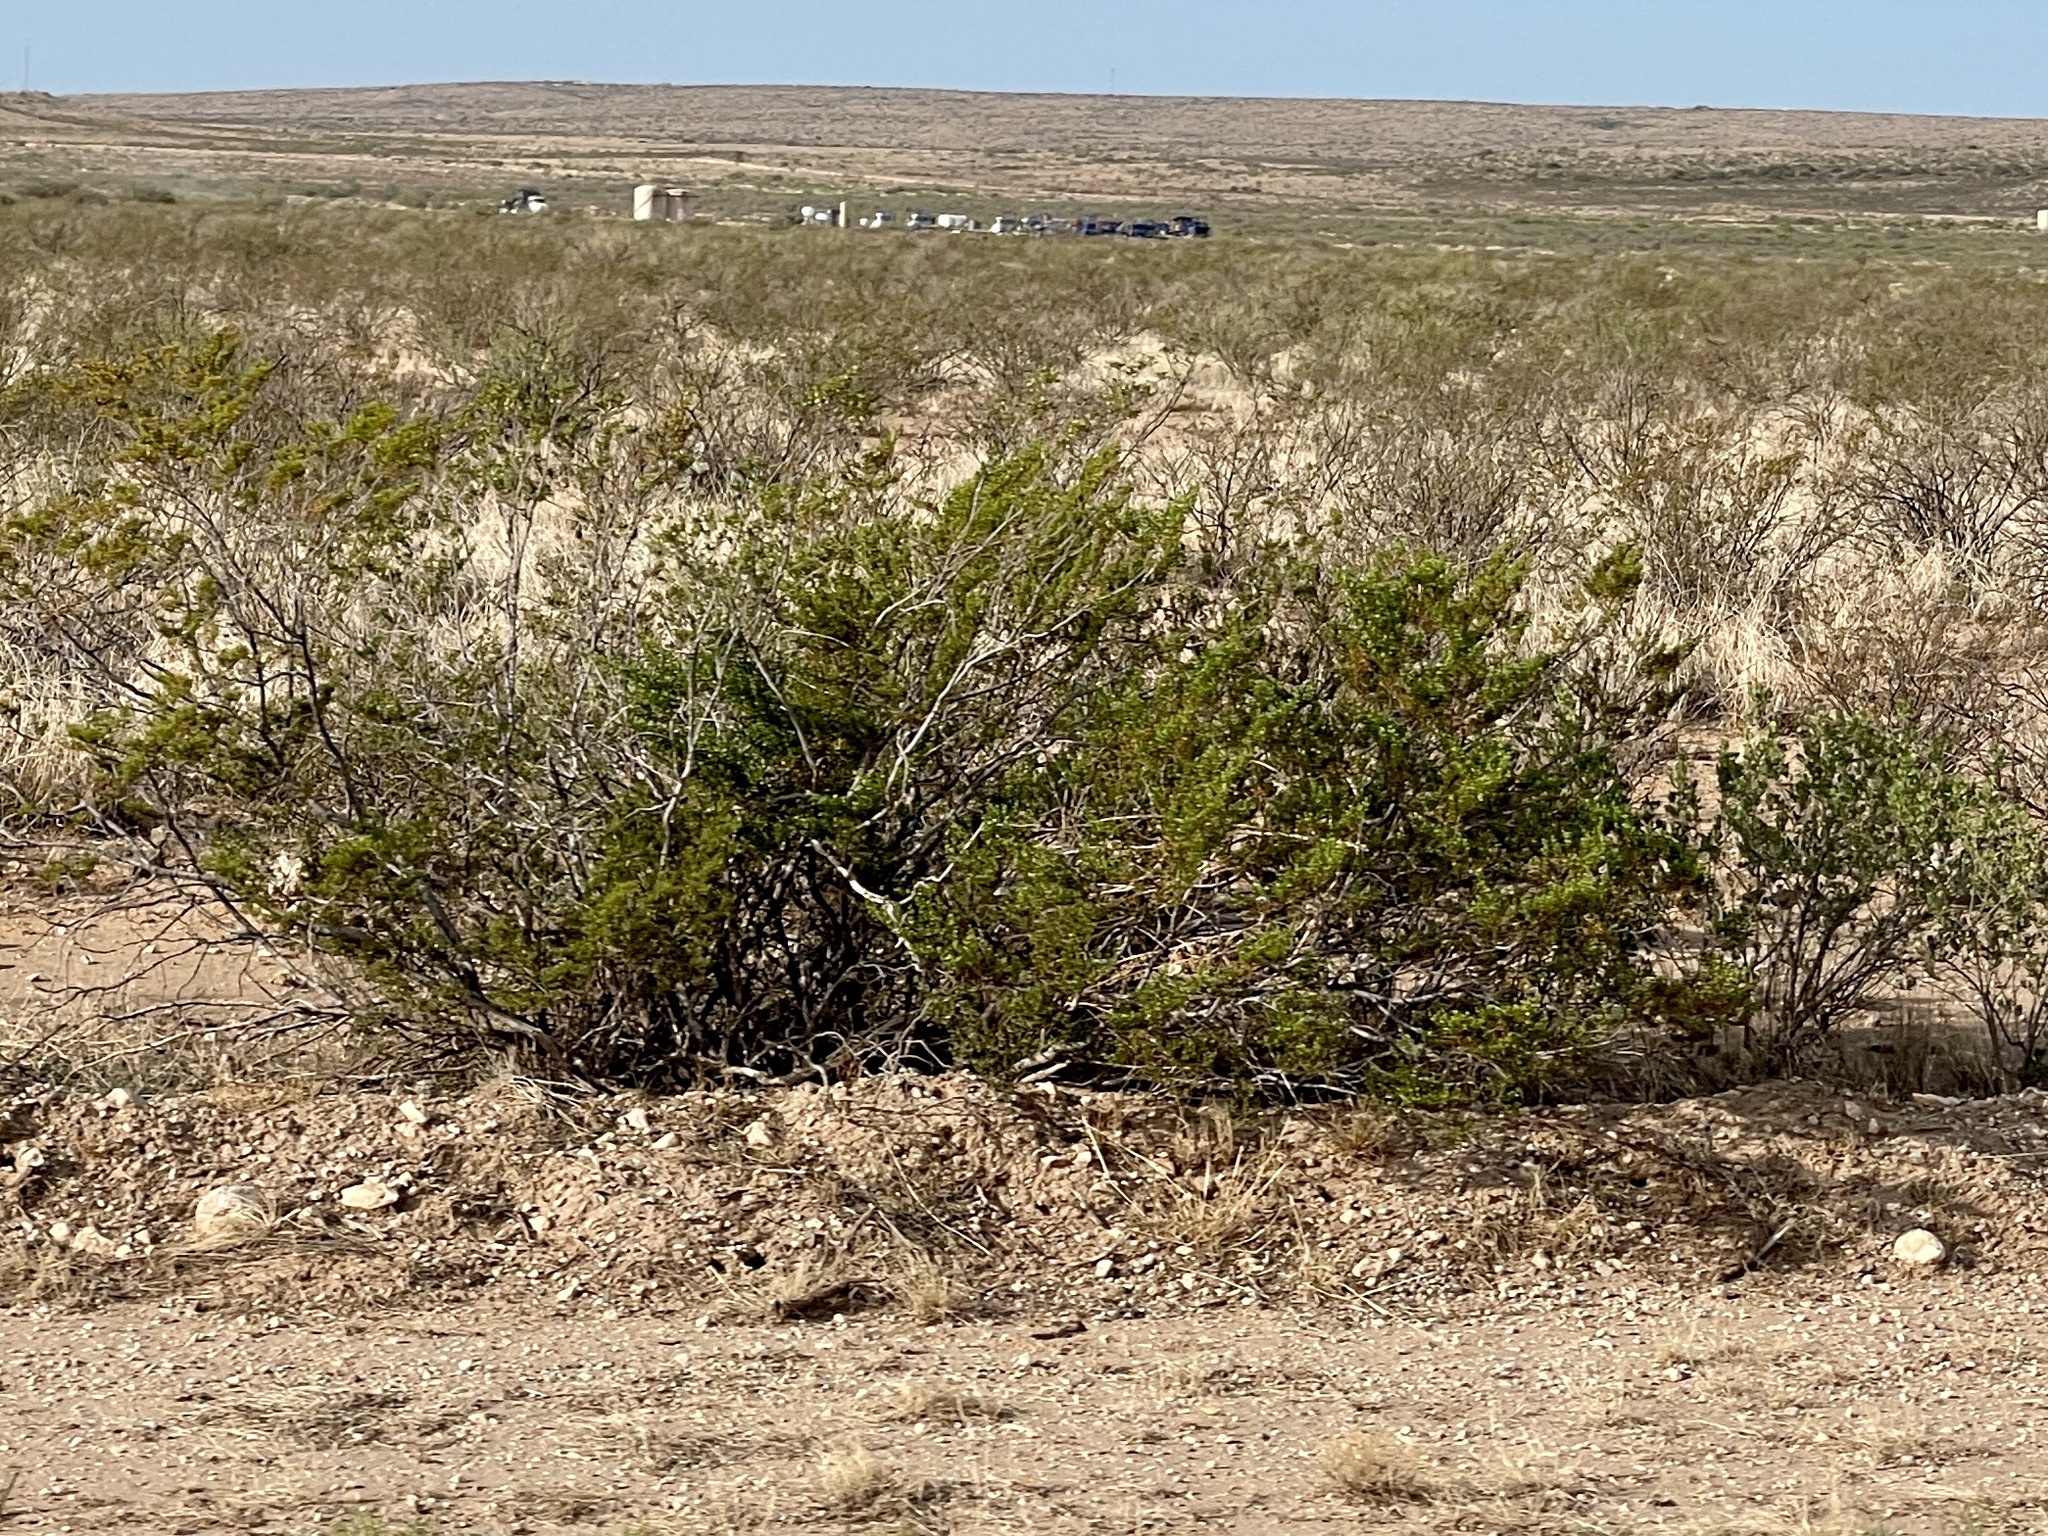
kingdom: Plantae
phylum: Tracheophyta
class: Magnoliopsida
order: Zygophyllales
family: Zygophyllaceae
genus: Larrea
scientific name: Larrea tridentata
